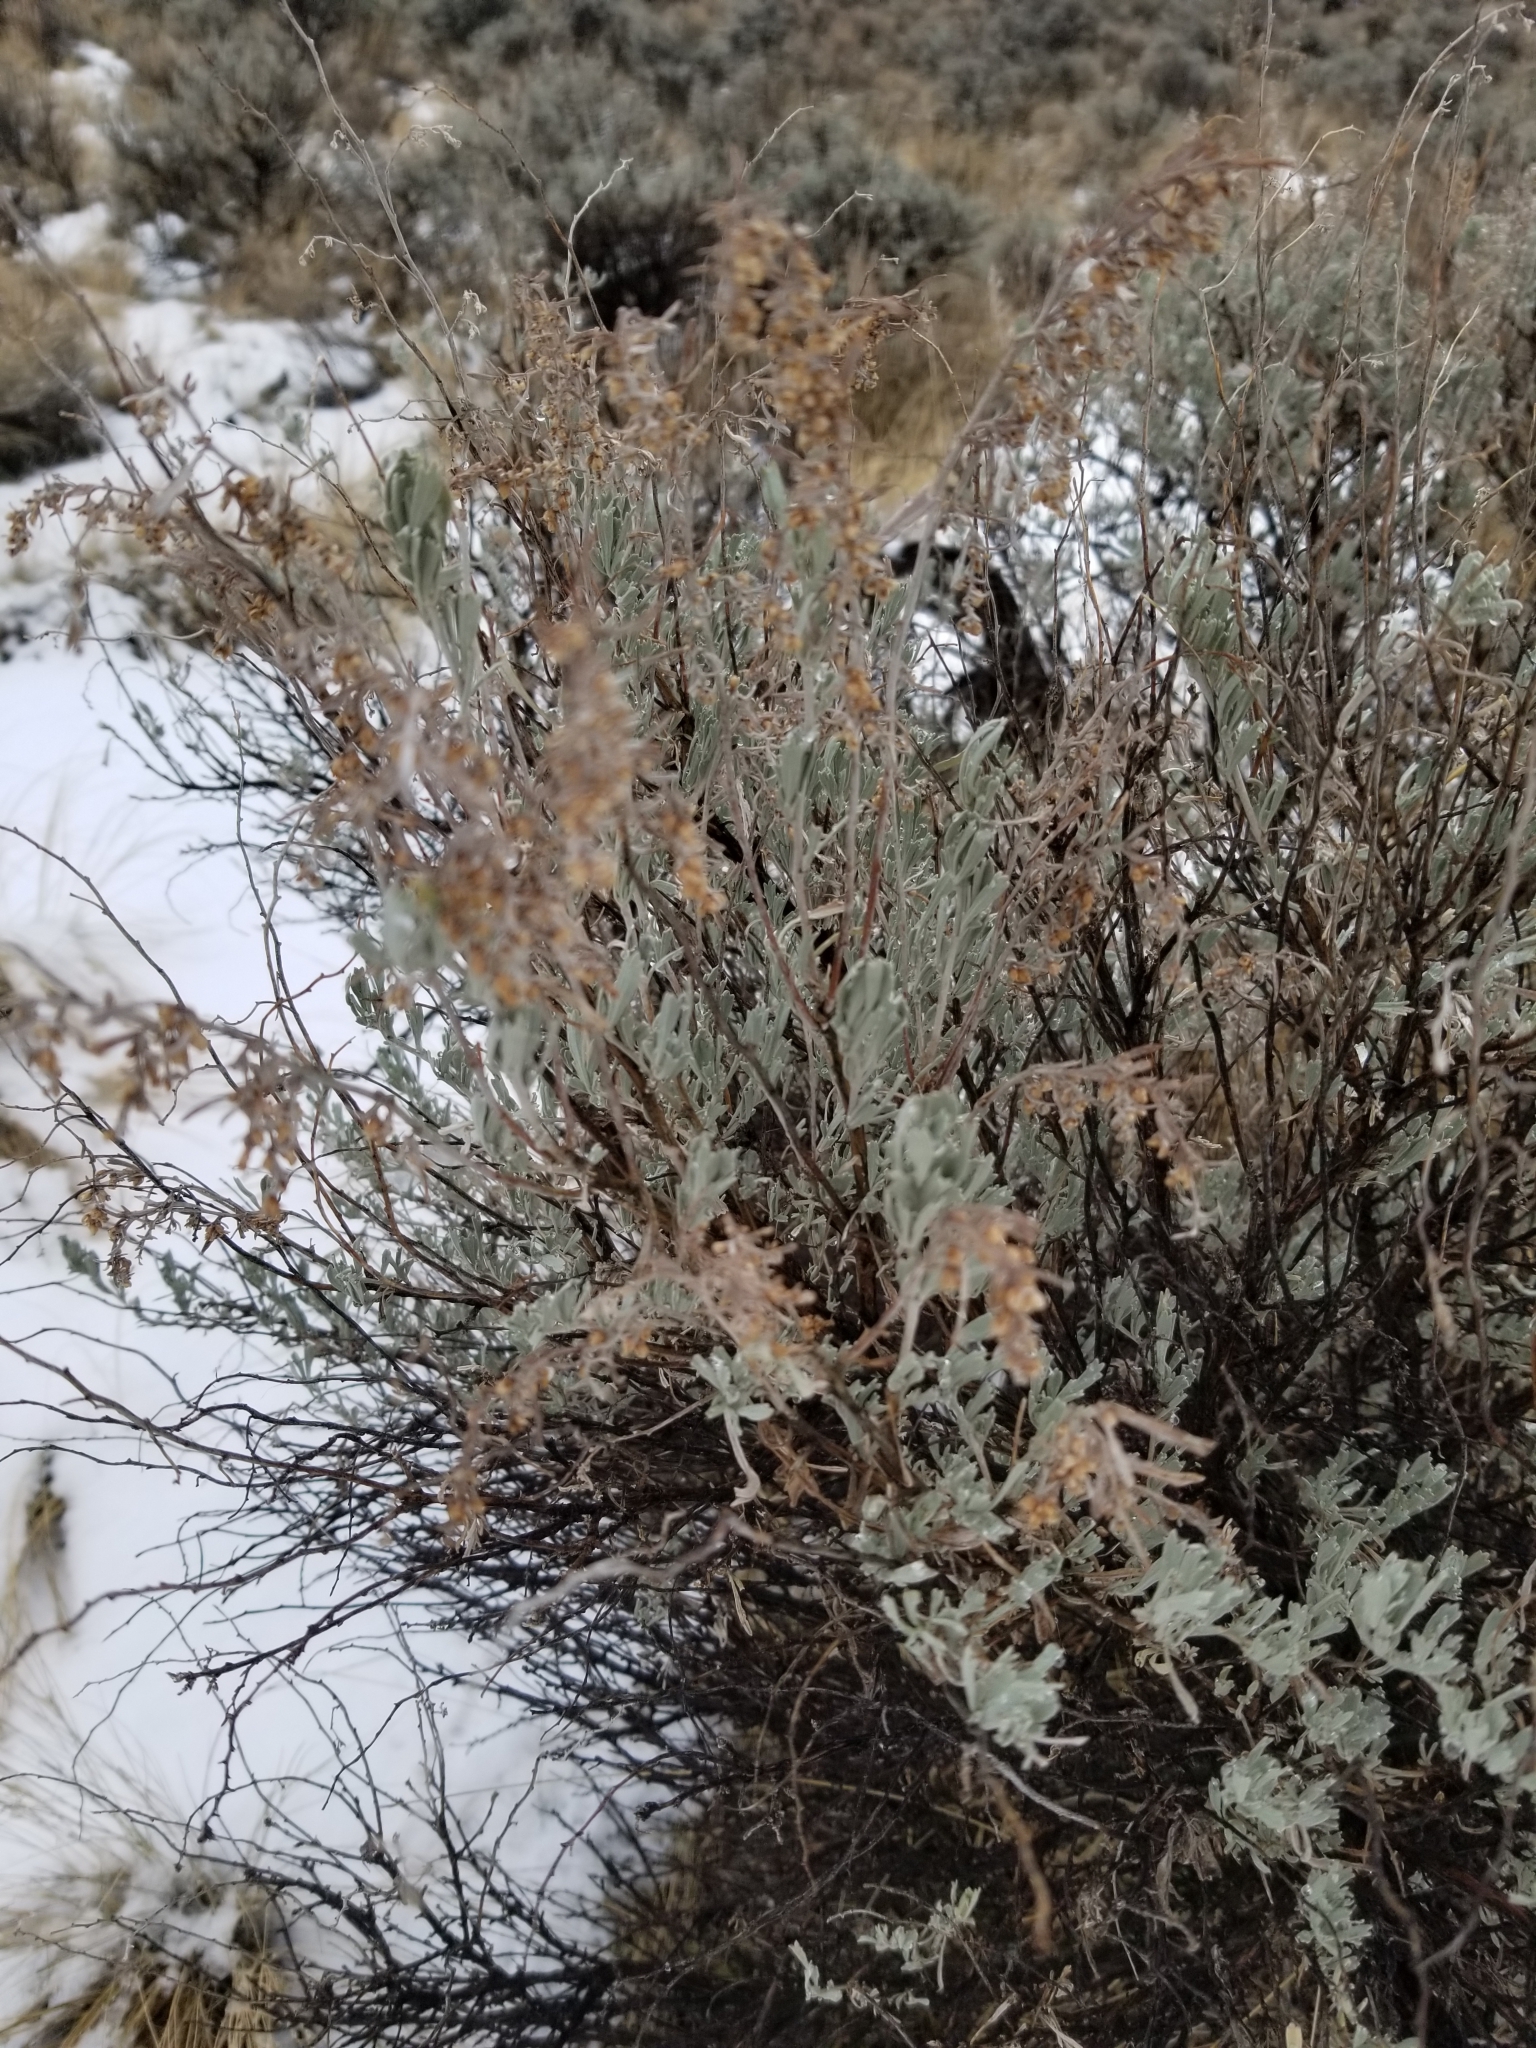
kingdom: Plantae
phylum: Tracheophyta
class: Magnoliopsida
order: Asterales
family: Asteraceae
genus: Artemisia
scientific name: Artemisia tridentata
